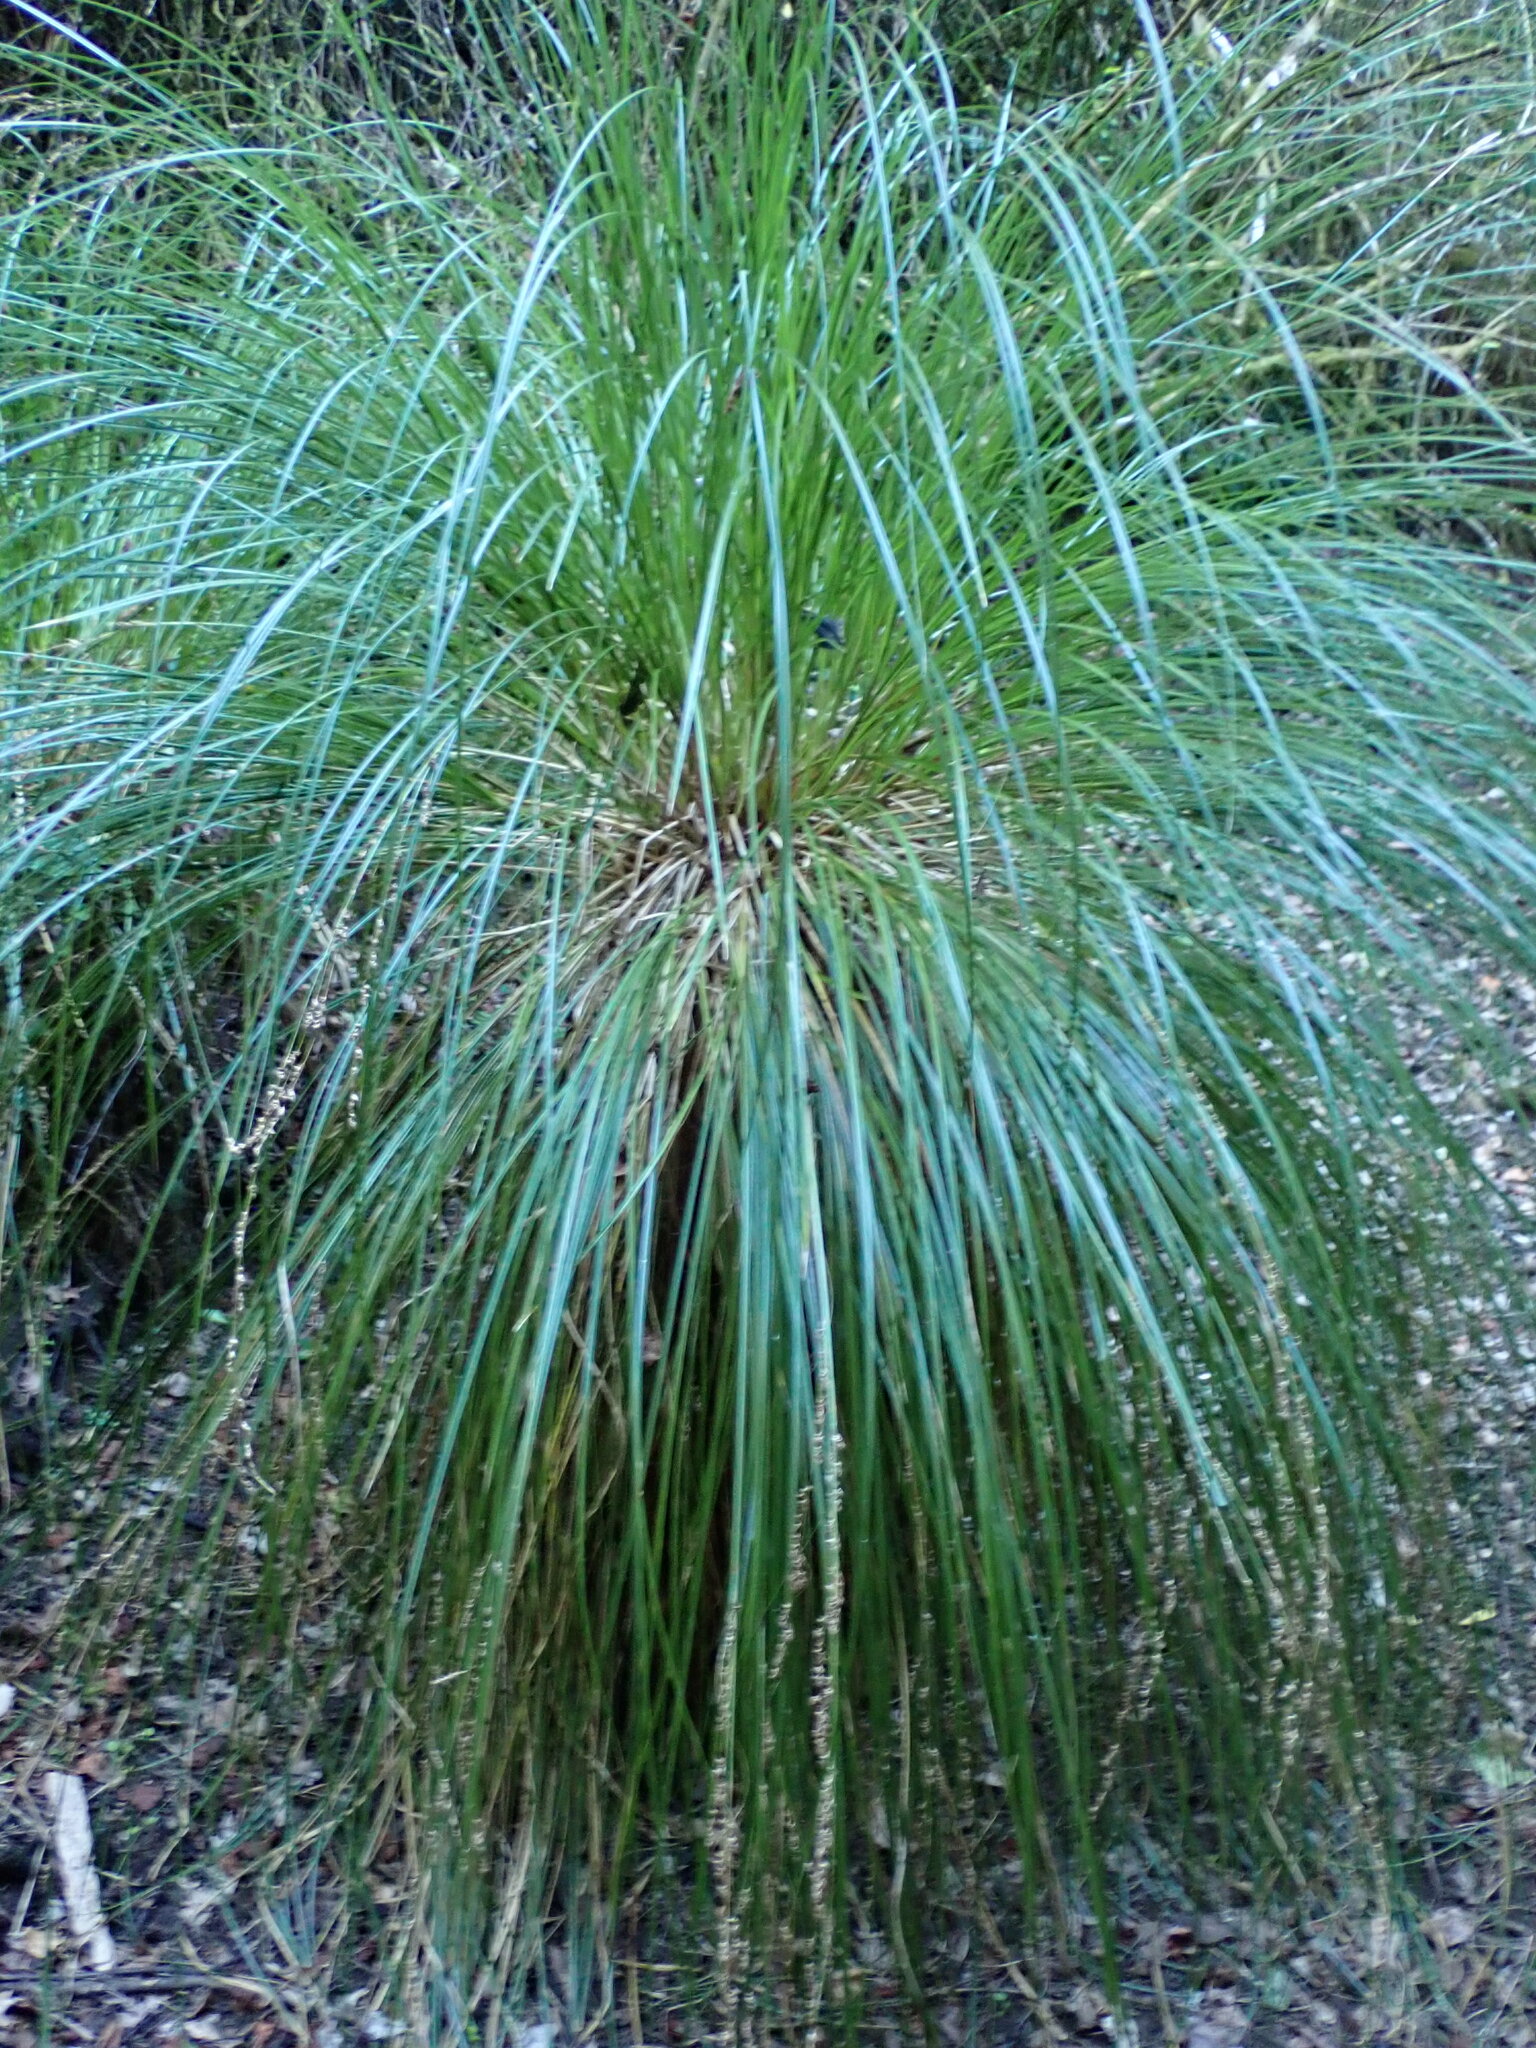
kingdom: Plantae
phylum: Tracheophyta
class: Liliopsida
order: Poales
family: Cyperaceae
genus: Carex
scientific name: Carex secta
